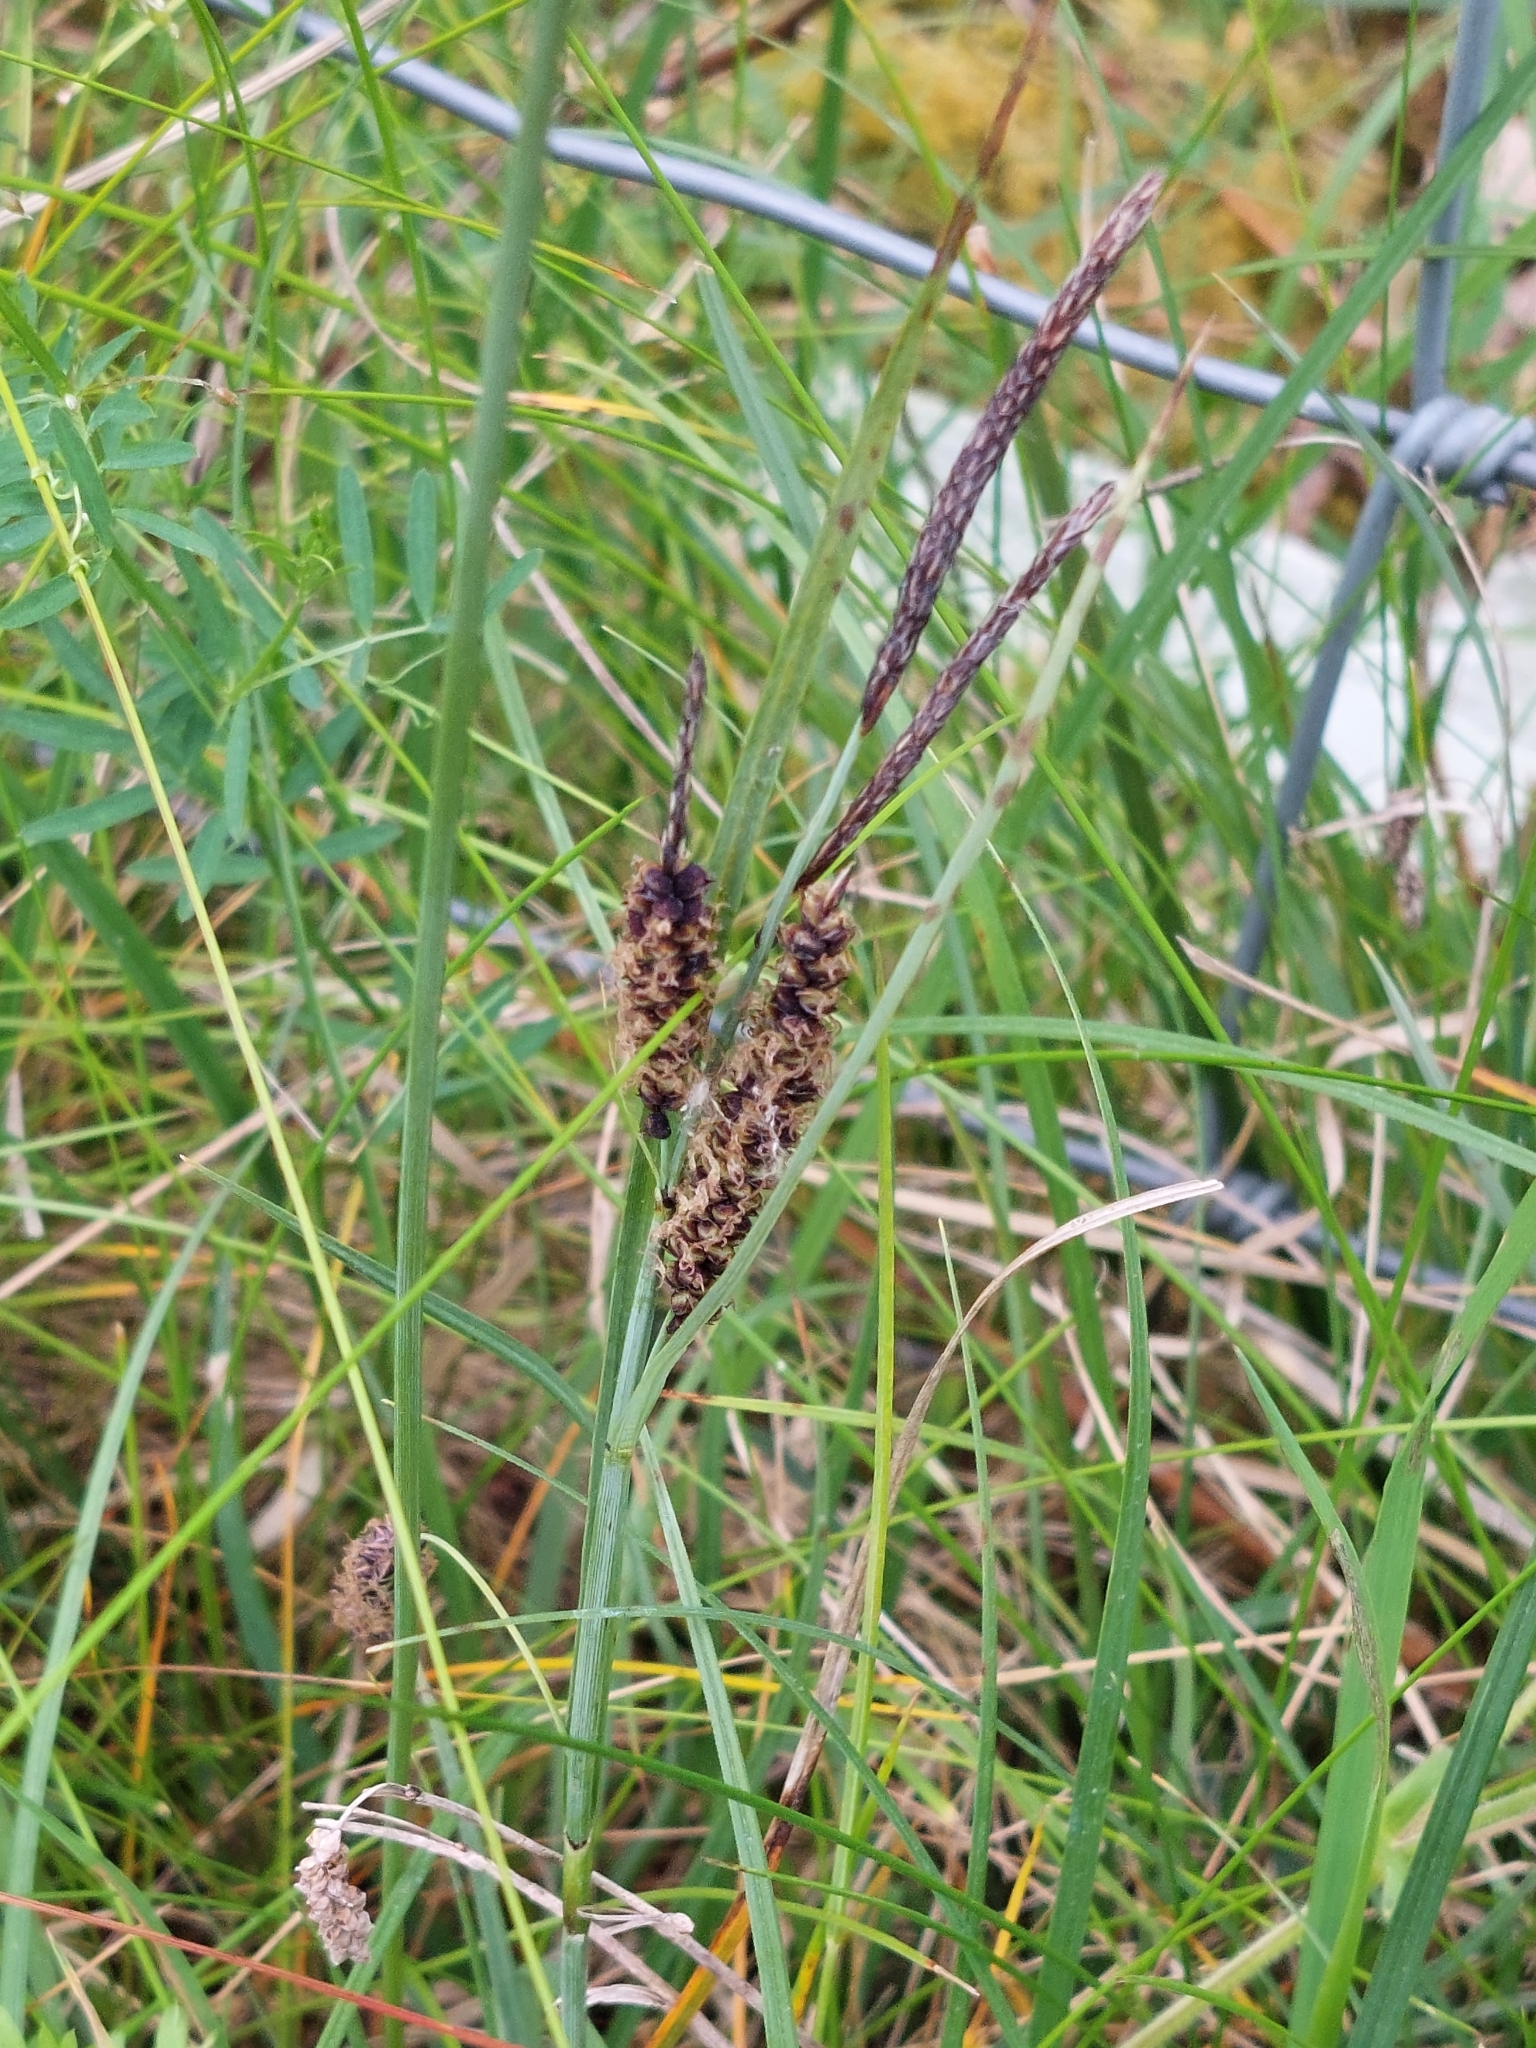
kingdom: Plantae
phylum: Tracheophyta
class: Liliopsida
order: Poales
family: Cyperaceae
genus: Carex
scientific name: Carex flacca
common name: Glaucous sedge
